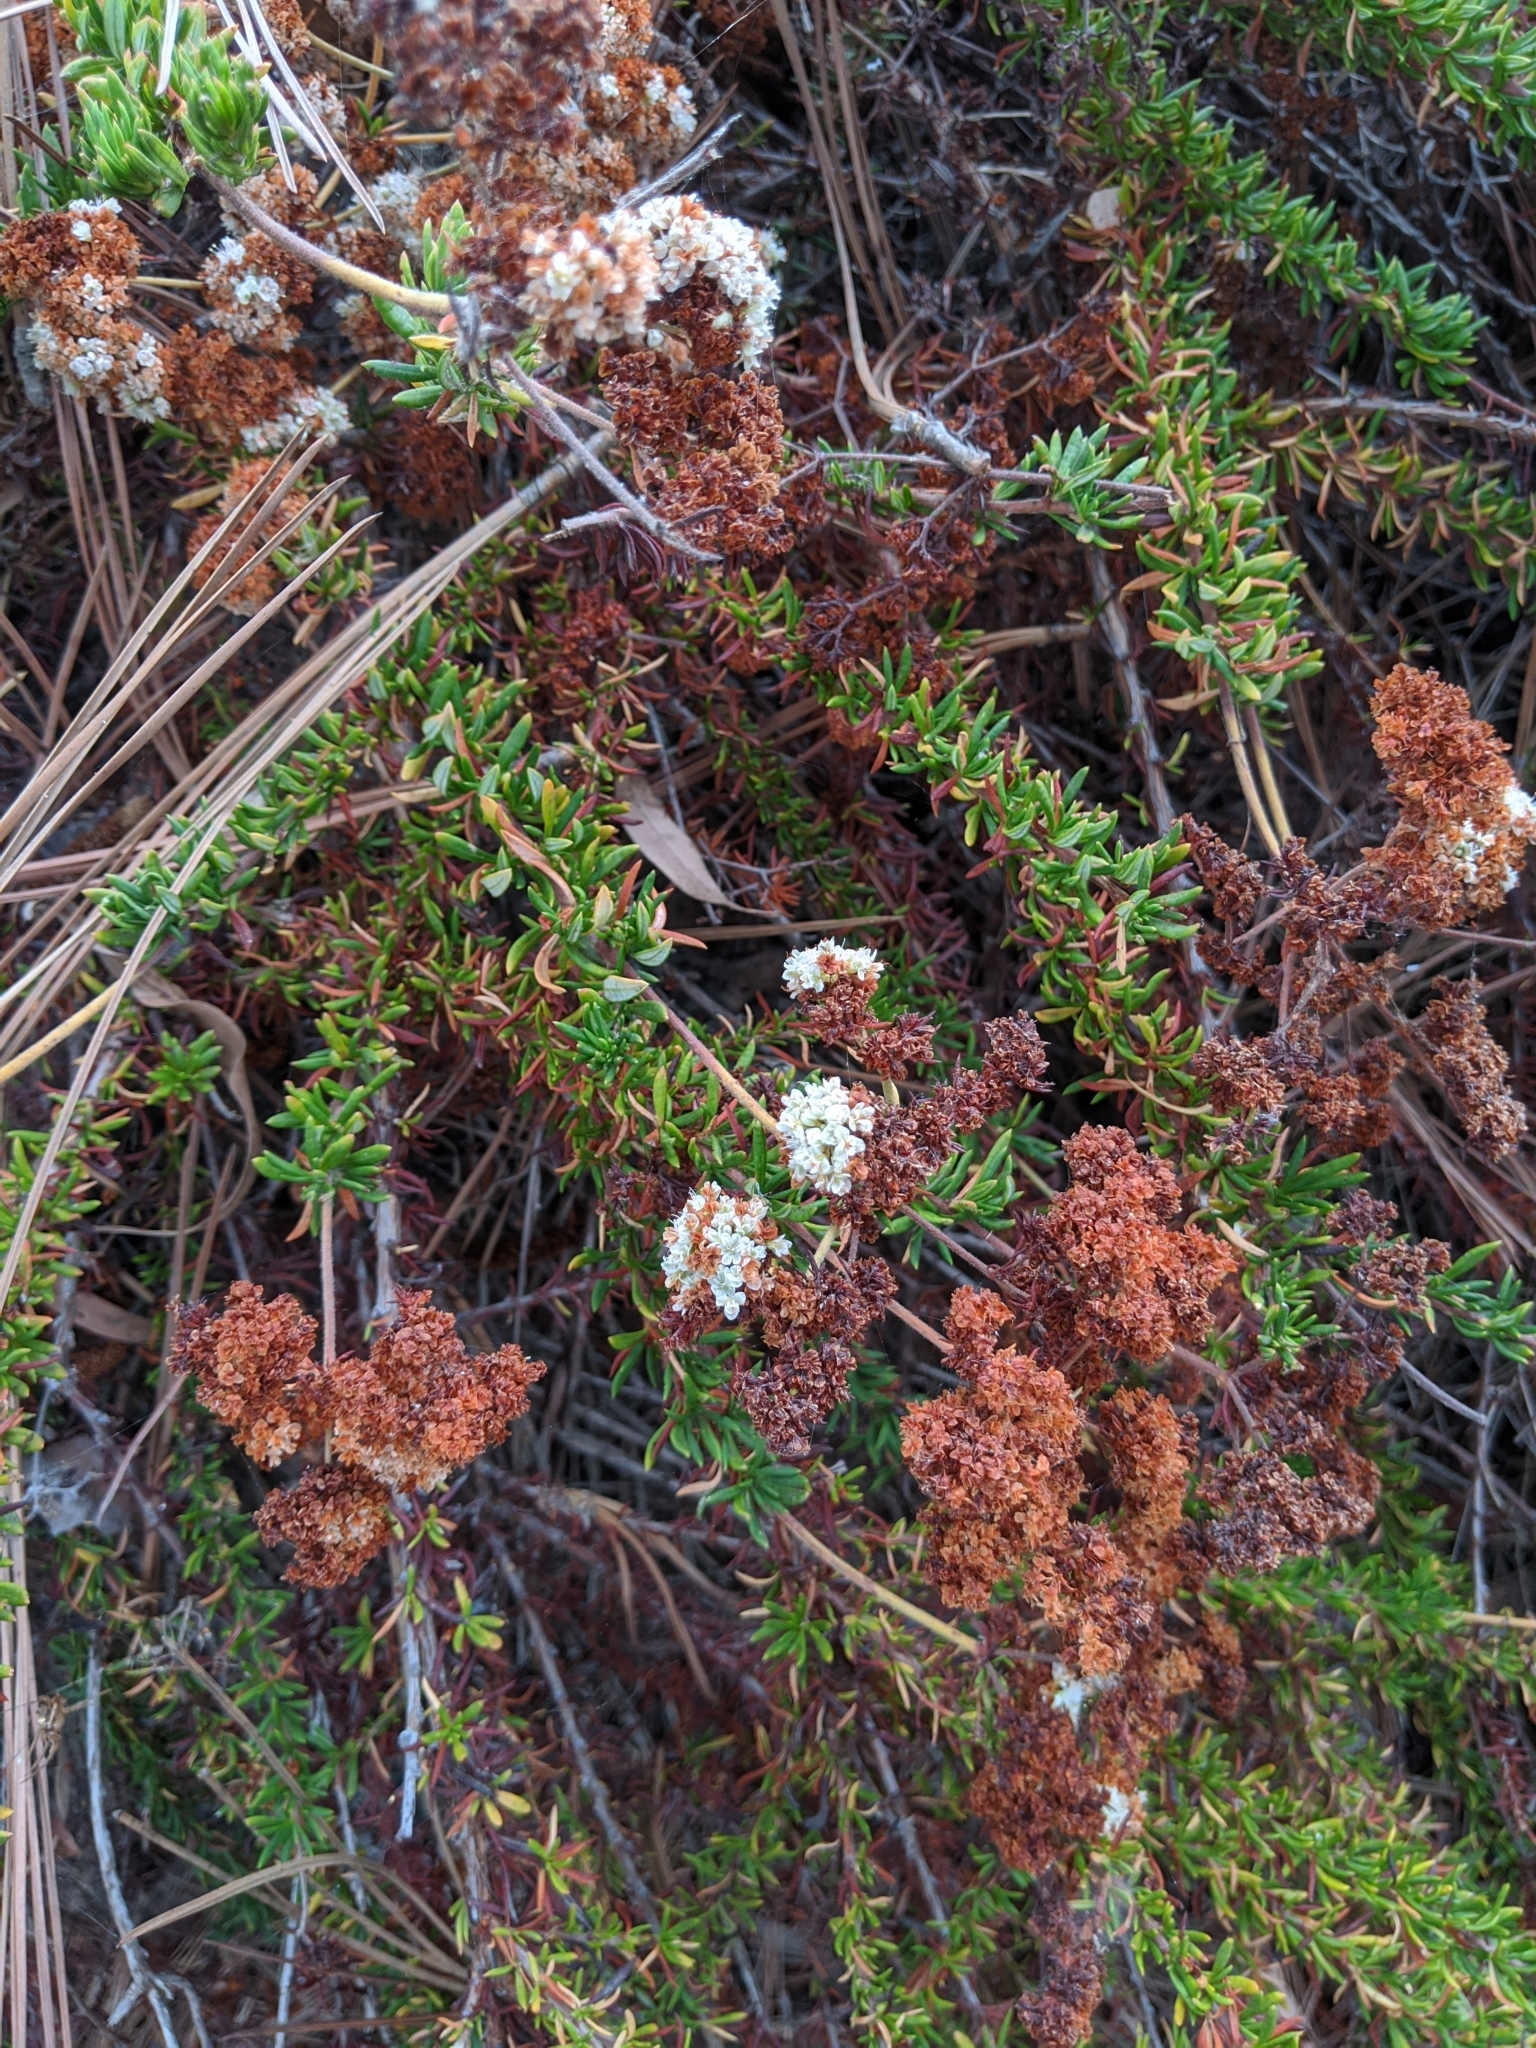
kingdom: Plantae
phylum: Tracheophyta
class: Magnoliopsida
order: Caryophyllales
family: Polygonaceae
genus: Eriogonum
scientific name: Eriogonum fasciculatum
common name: California wild buckwheat
